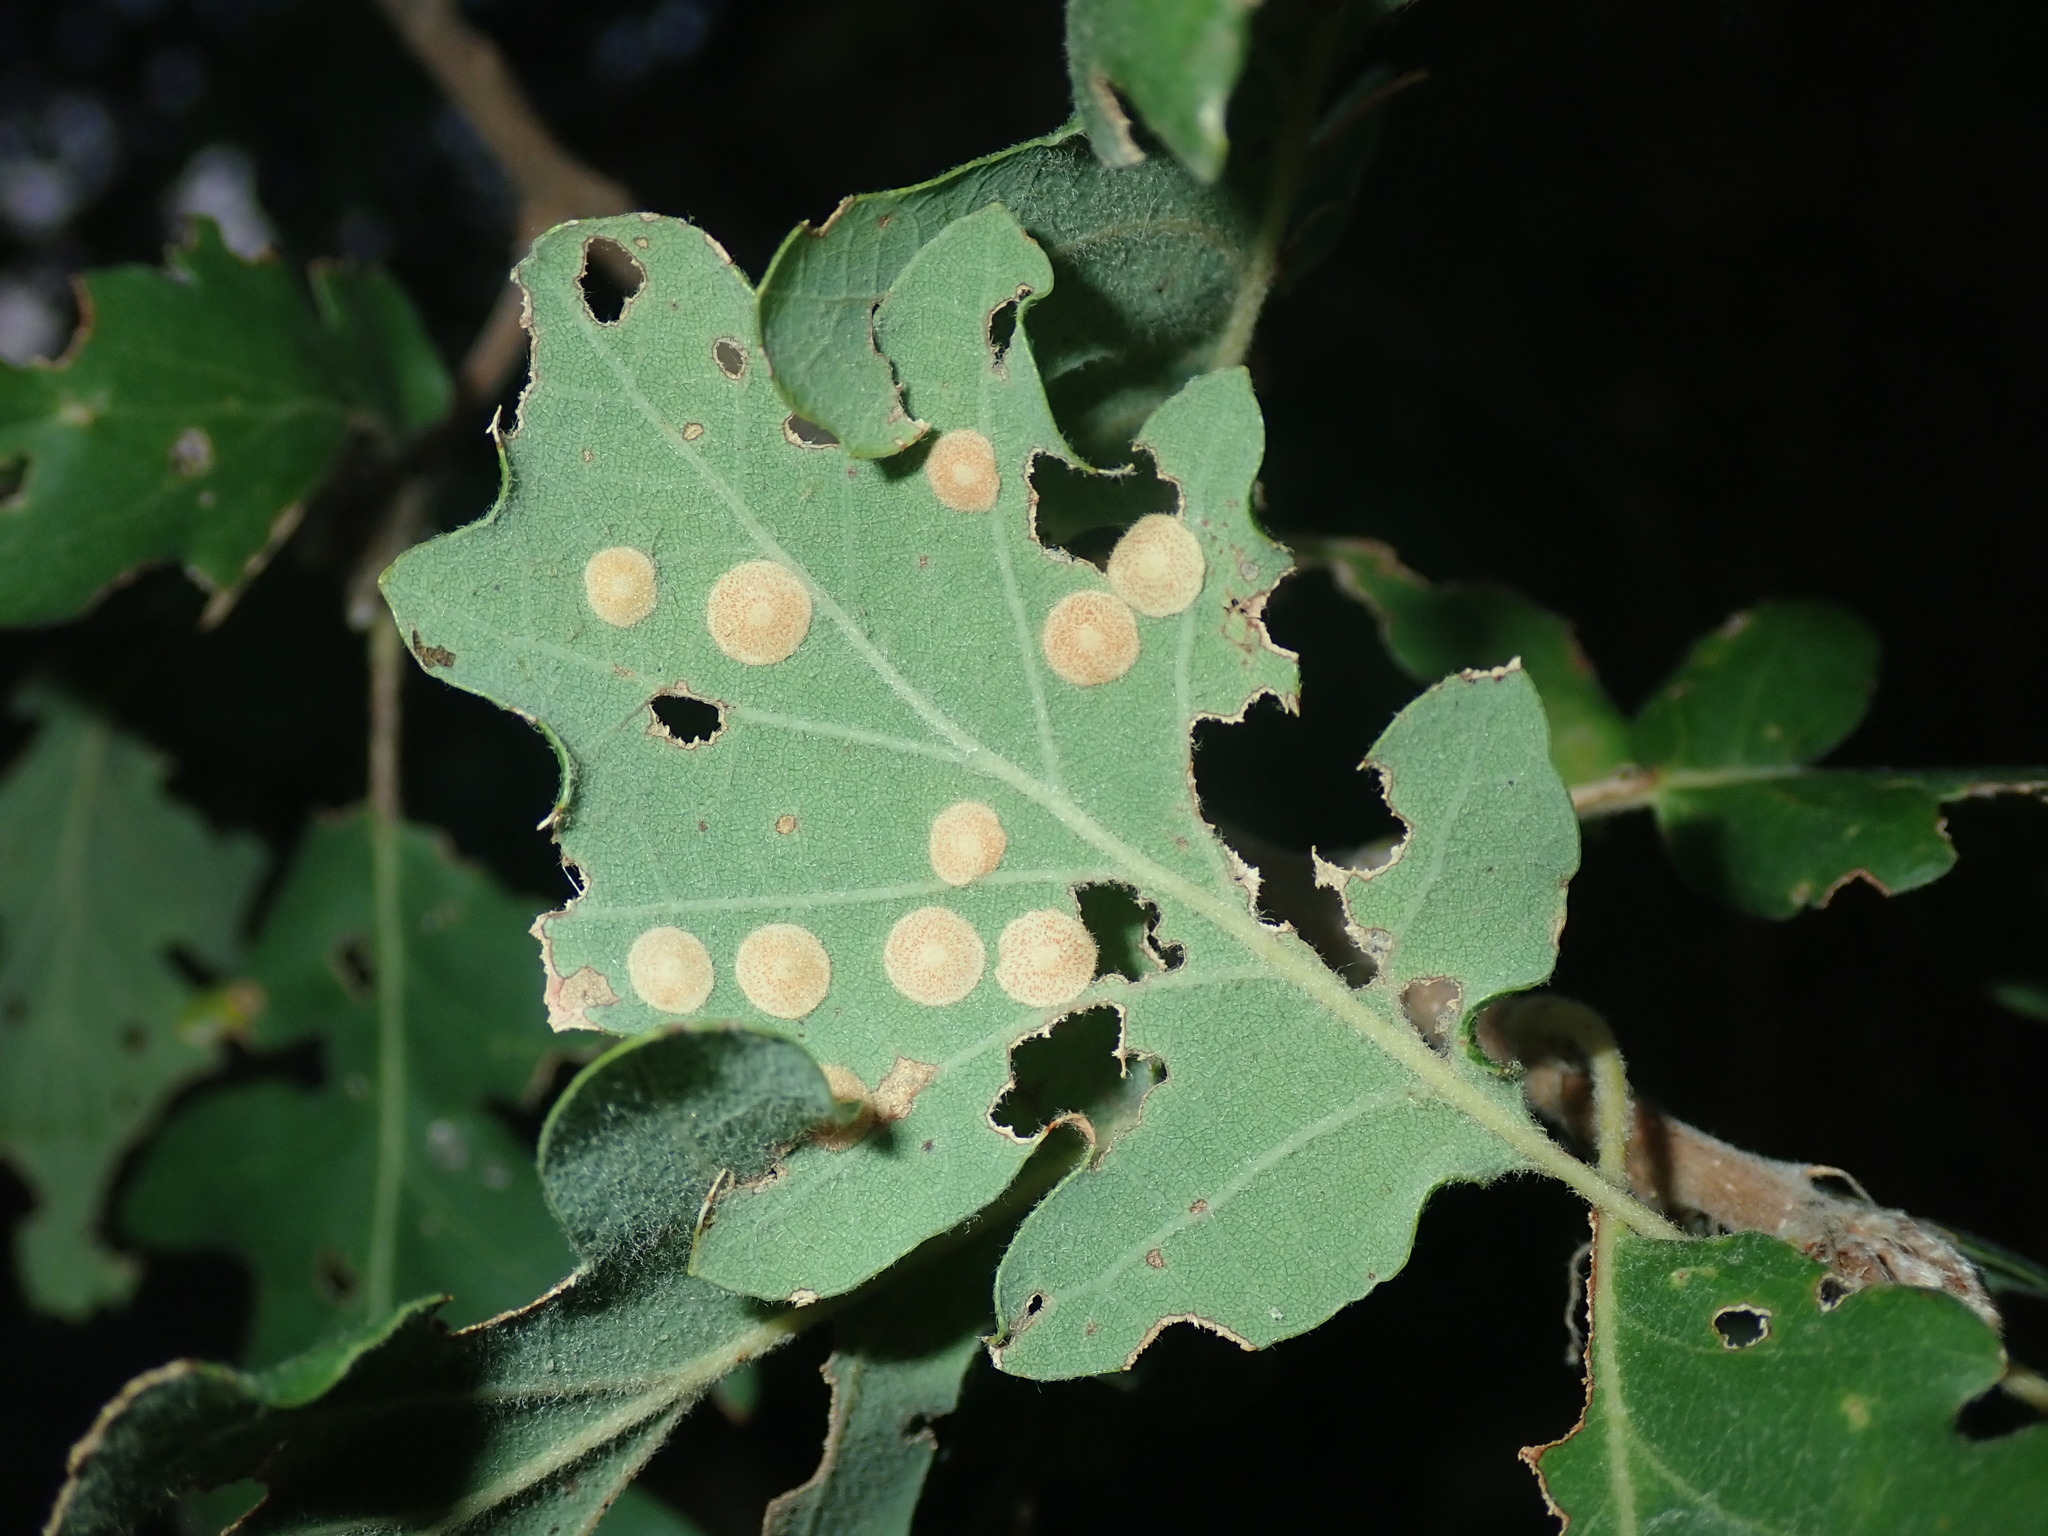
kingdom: Animalia
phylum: Arthropoda
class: Insecta
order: Hymenoptera
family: Cynipidae
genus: Neuroterus
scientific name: Neuroterus quercusbaccarum
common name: Common spangle gall
